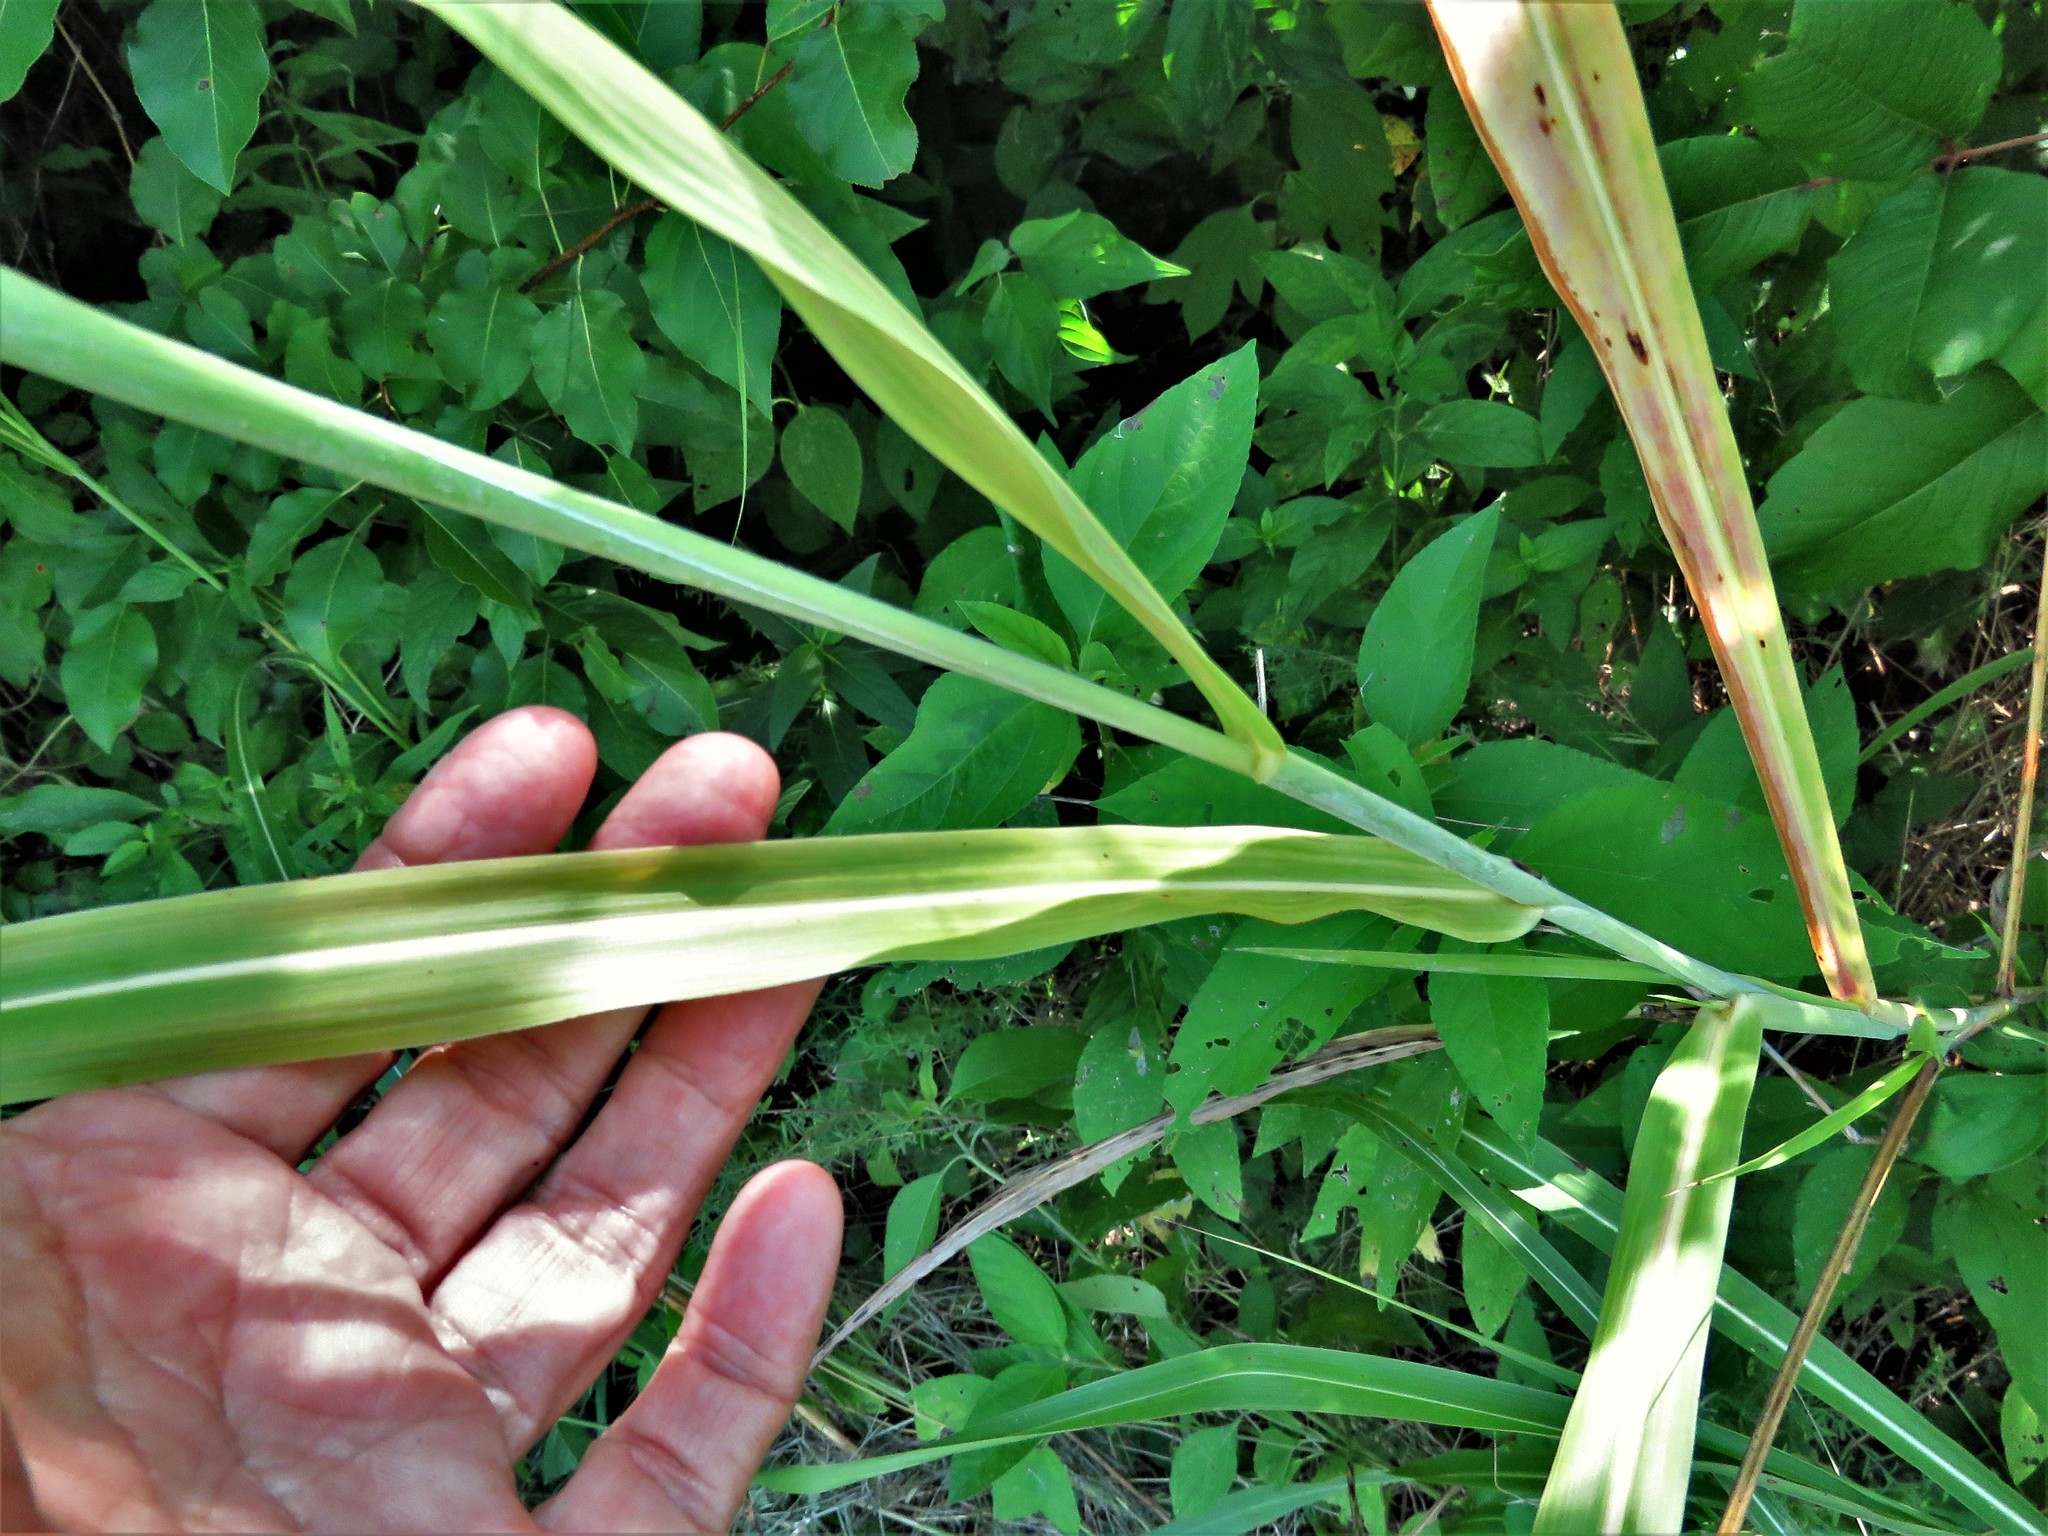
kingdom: Plantae
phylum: Tracheophyta
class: Liliopsida
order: Poales
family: Poaceae
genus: Sorghum
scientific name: Sorghum halepense
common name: Johnson-grass
